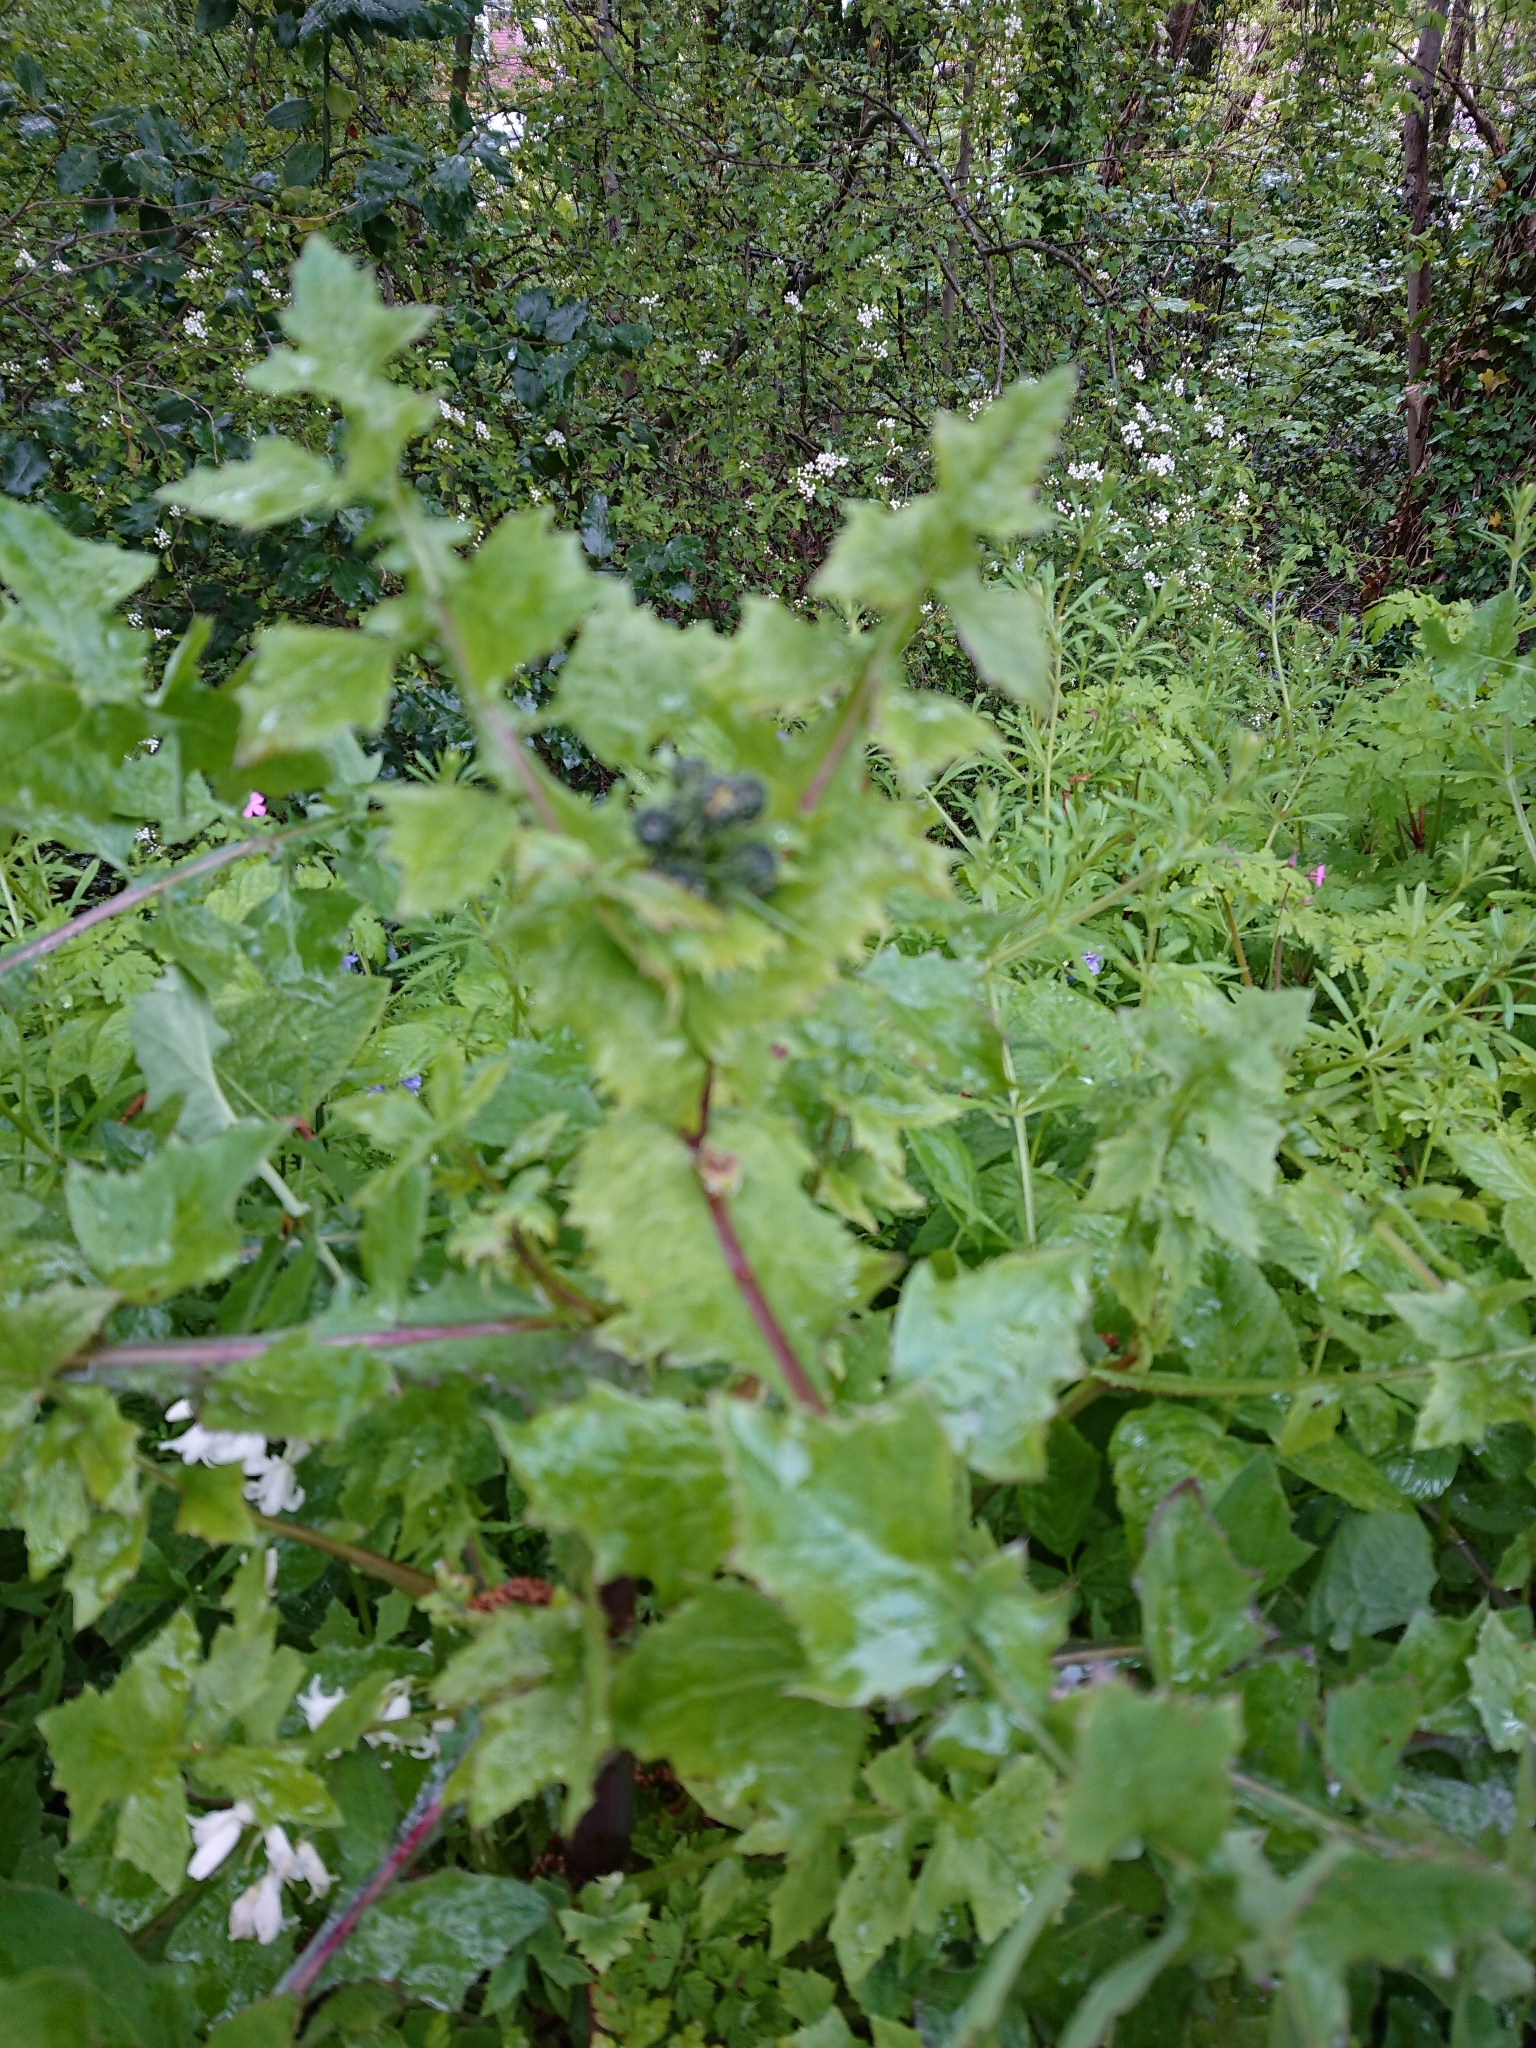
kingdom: Plantae
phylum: Tracheophyta
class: Magnoliopsida
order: Asterales
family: Asteraceae
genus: Sonchus
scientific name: Sonchus oleraceus
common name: Common sowthistle
